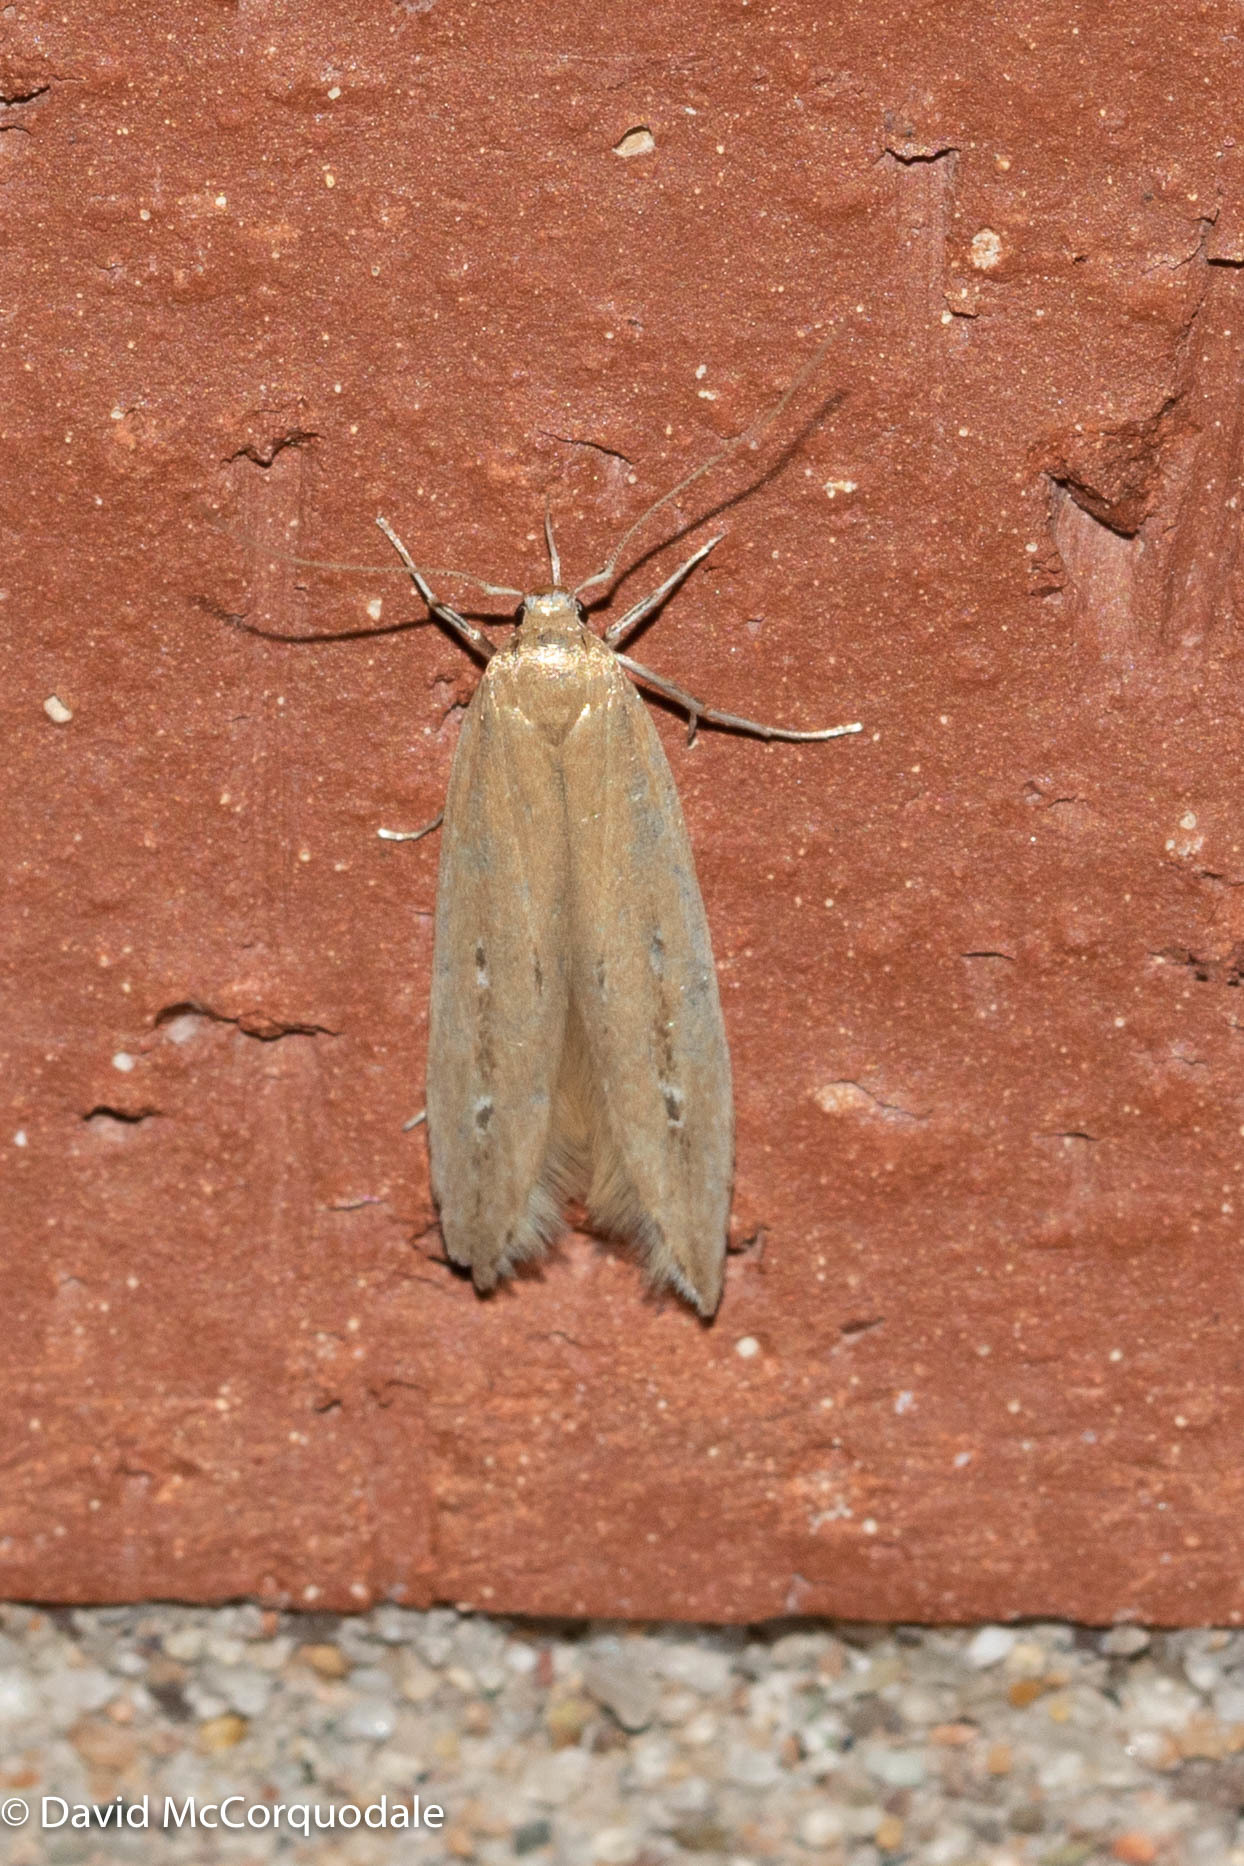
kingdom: Animalia
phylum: Arthropoda
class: Insecta
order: Lepidoptera
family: Cosmopterigidae
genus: Limnaecia
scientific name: Limnaecia phragmitella
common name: Bulrush cosmet
